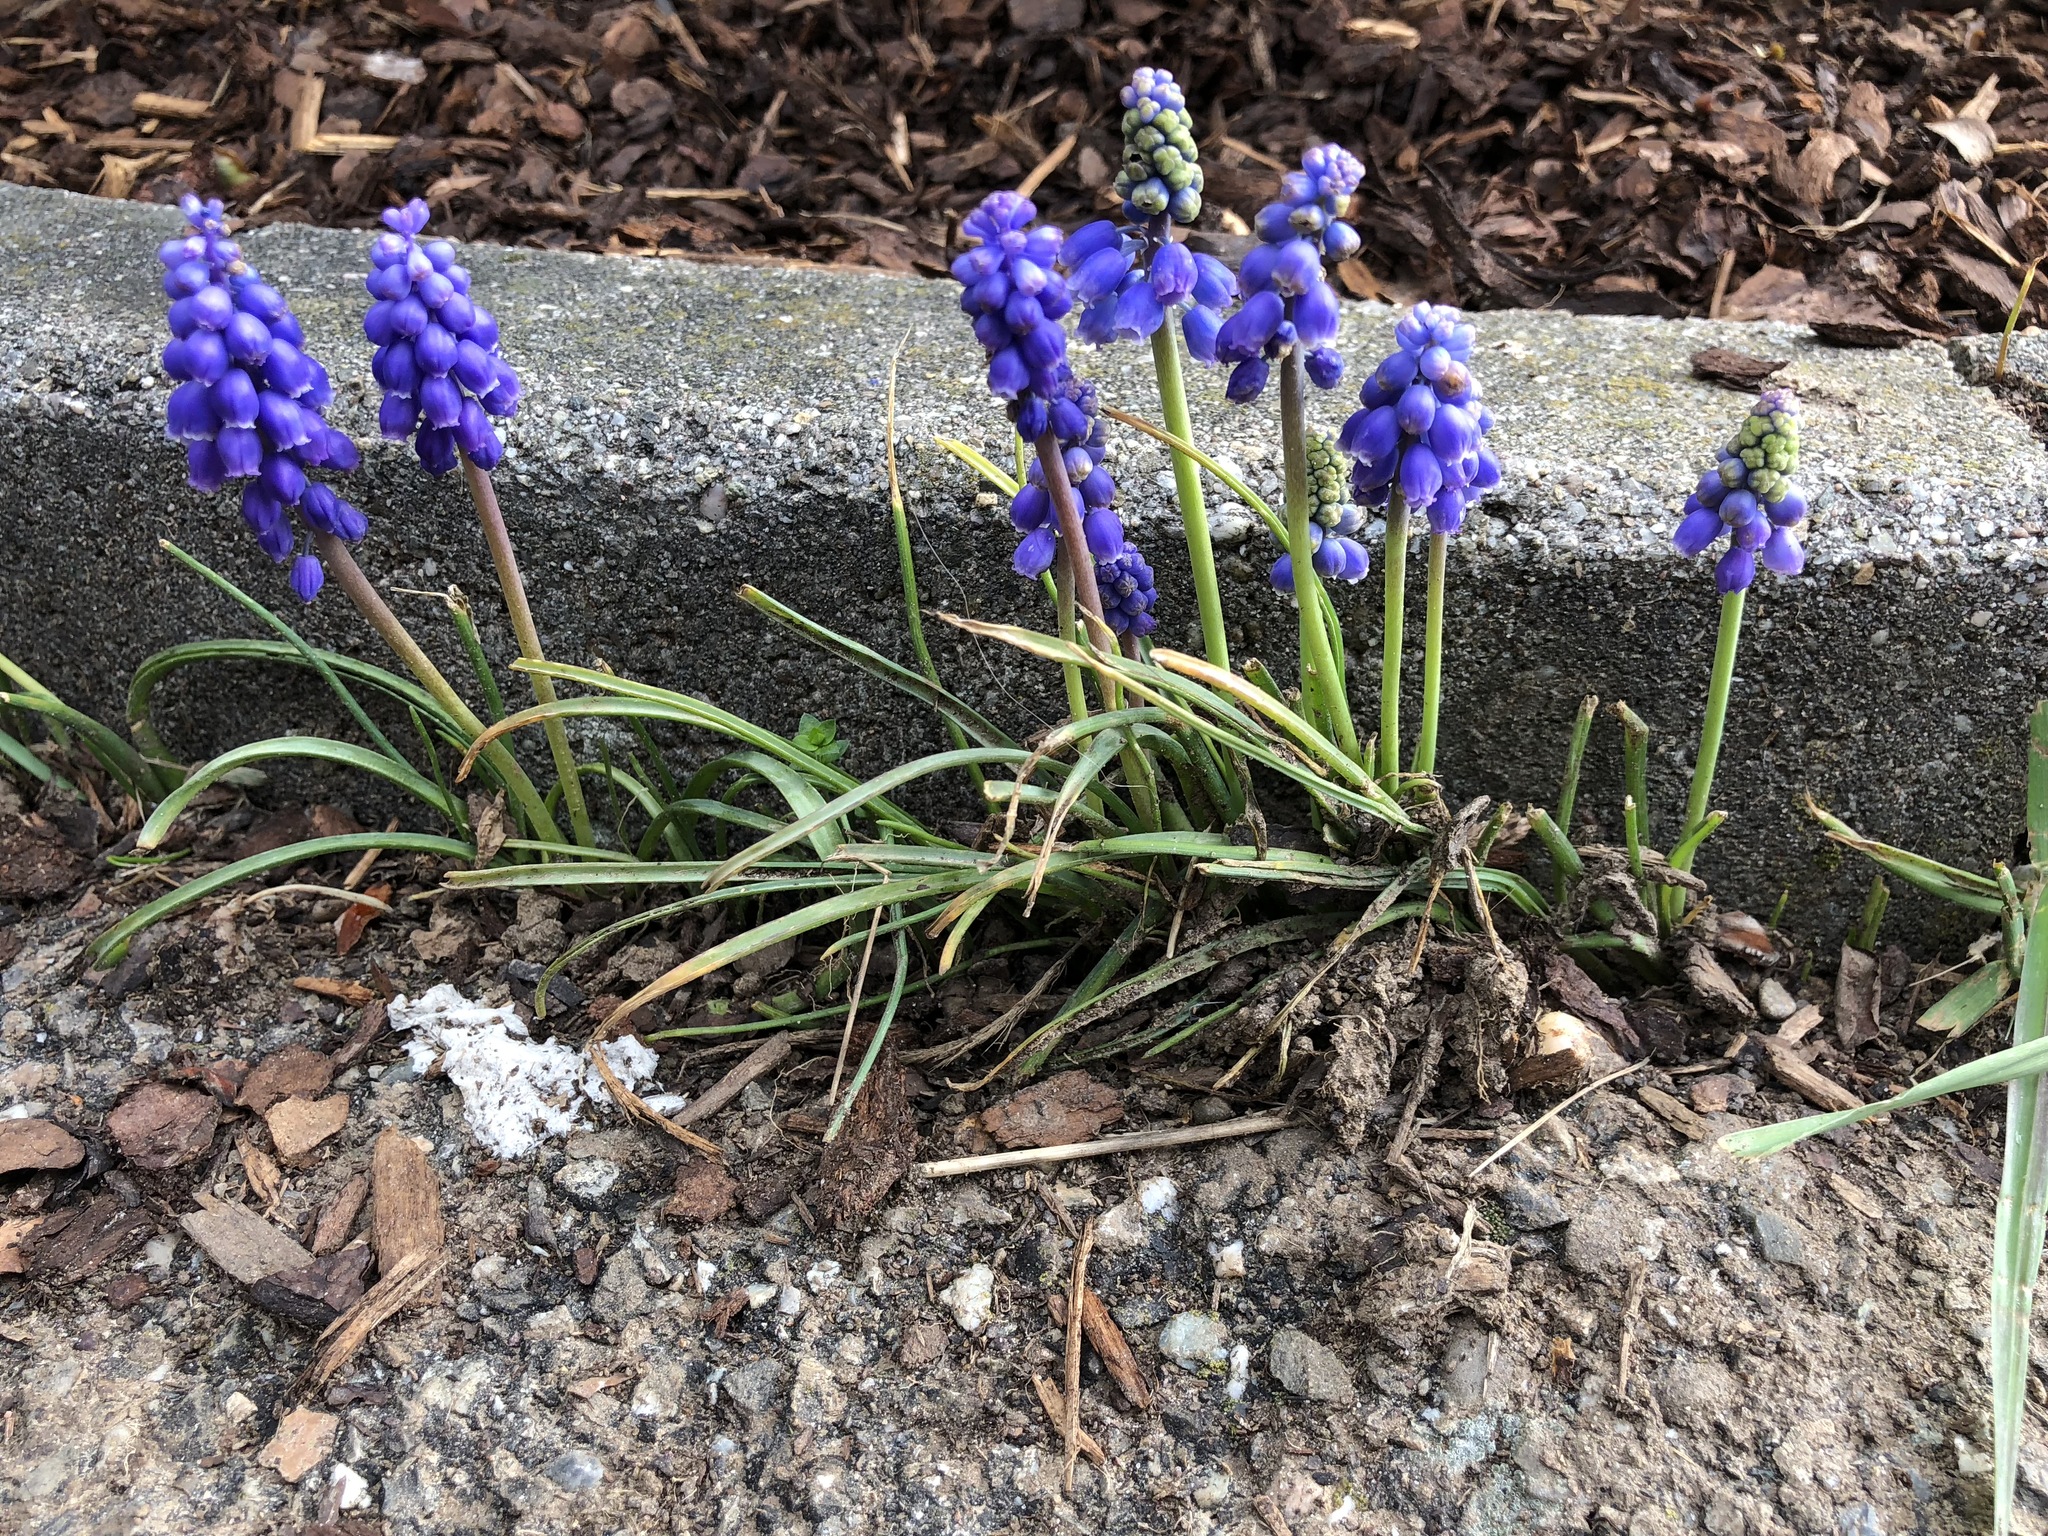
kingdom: Plantae
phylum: Tracheophyta
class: Liliopsida
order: Asparagales
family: Asparagaceae
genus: Muscari
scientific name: Muscari armeniacum
